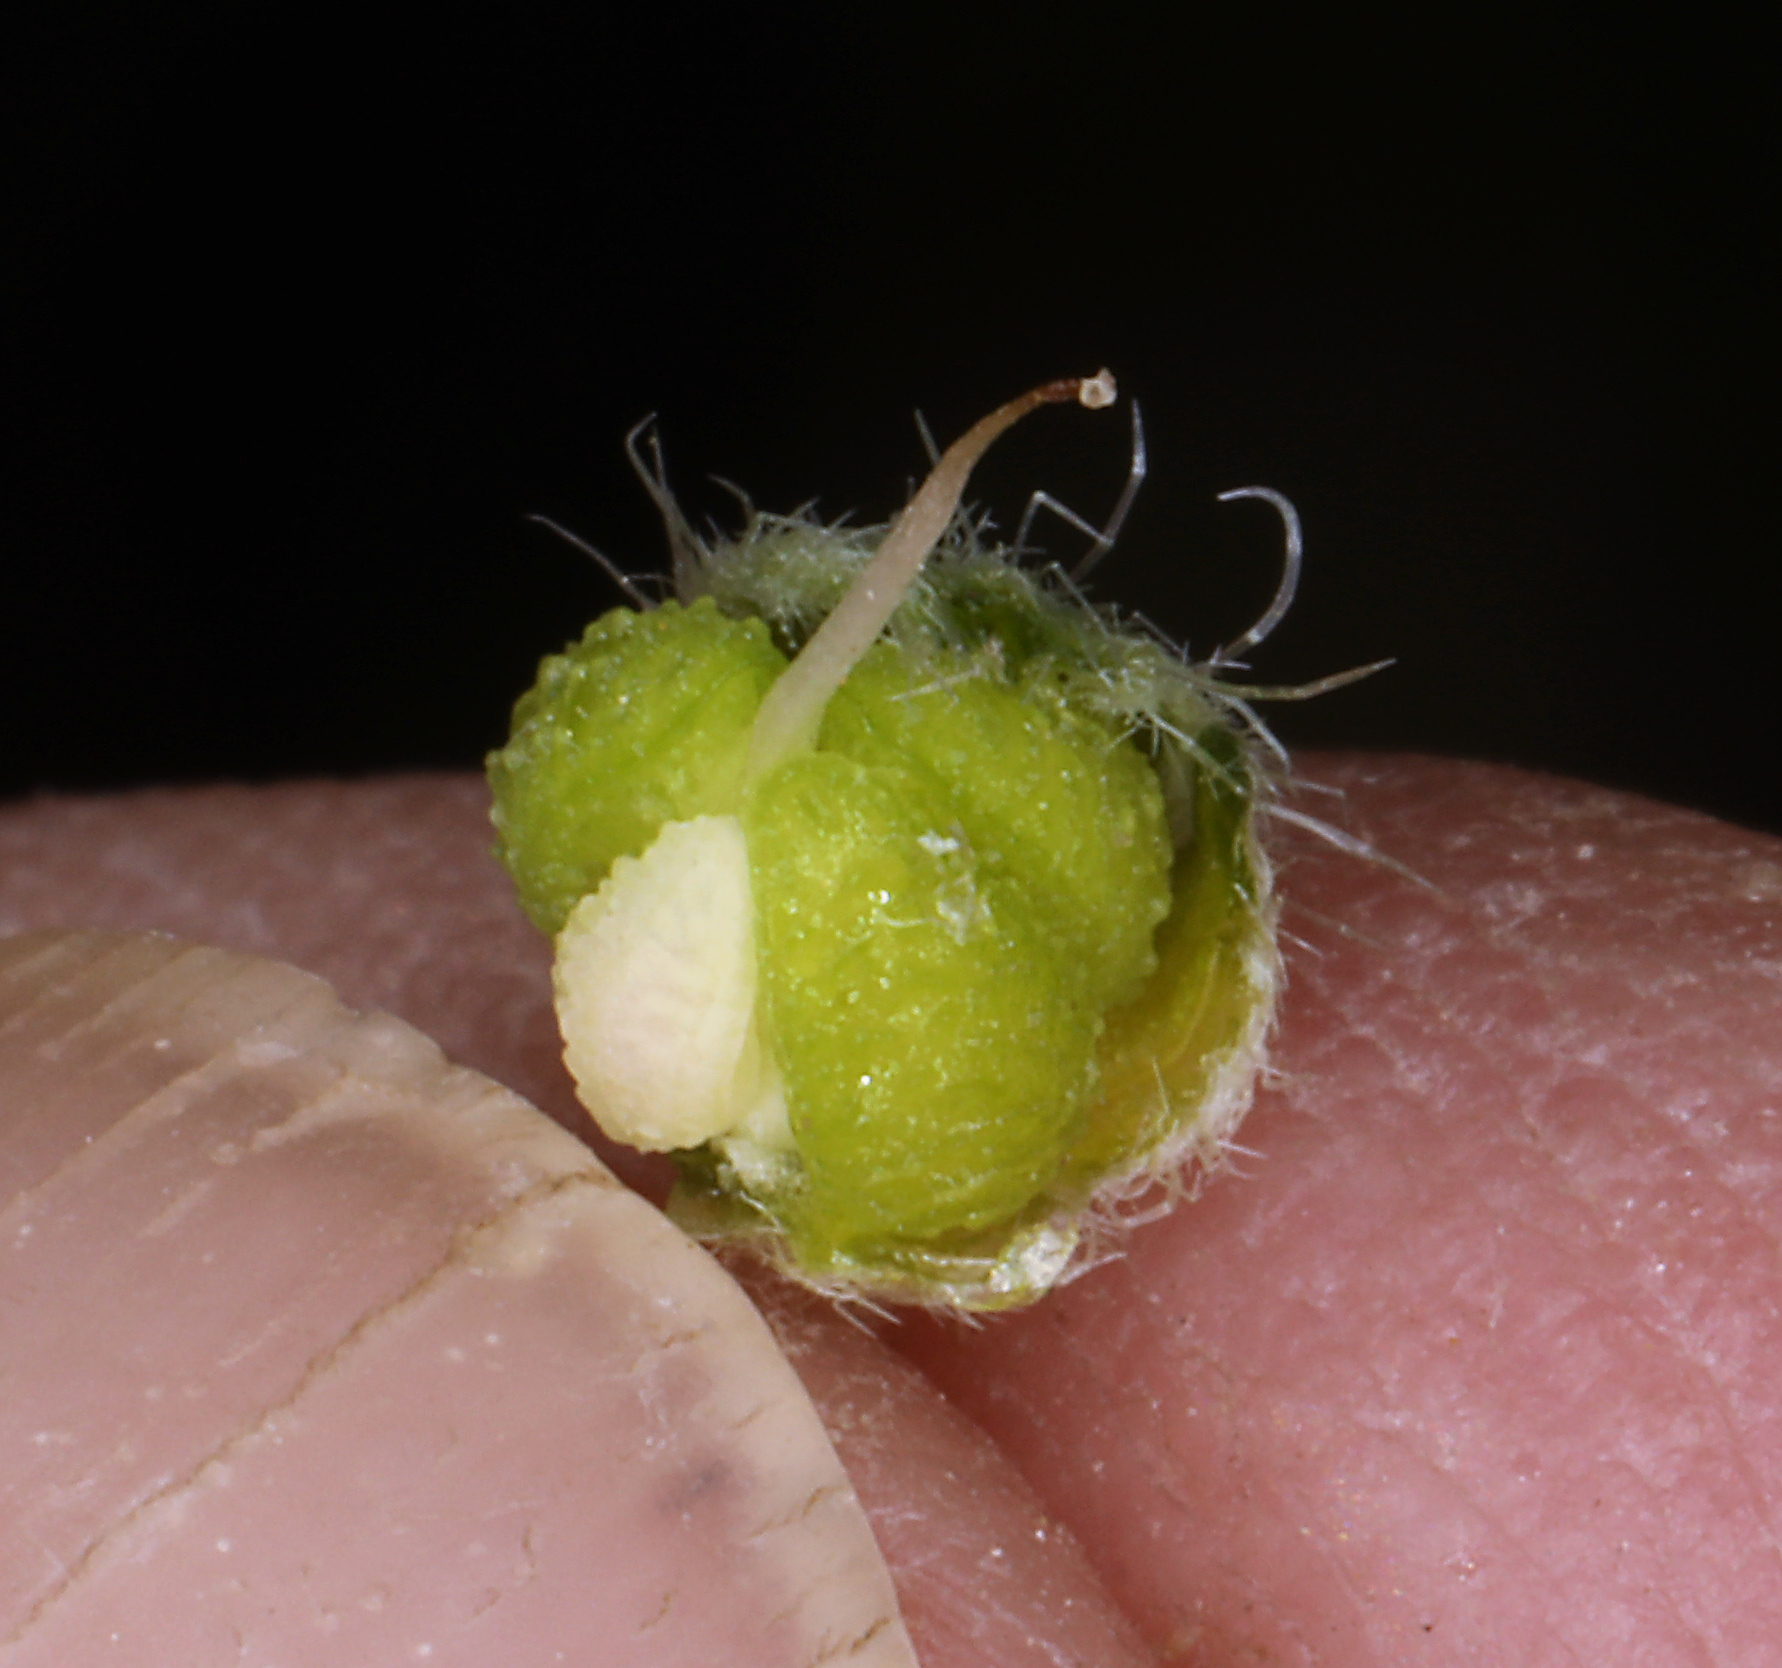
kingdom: Plantae
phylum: Tracheophyta
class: Magnoliopsida
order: Boraginales
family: Boraginaceae
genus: Oreocarya
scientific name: Oreocarya flavoculata
